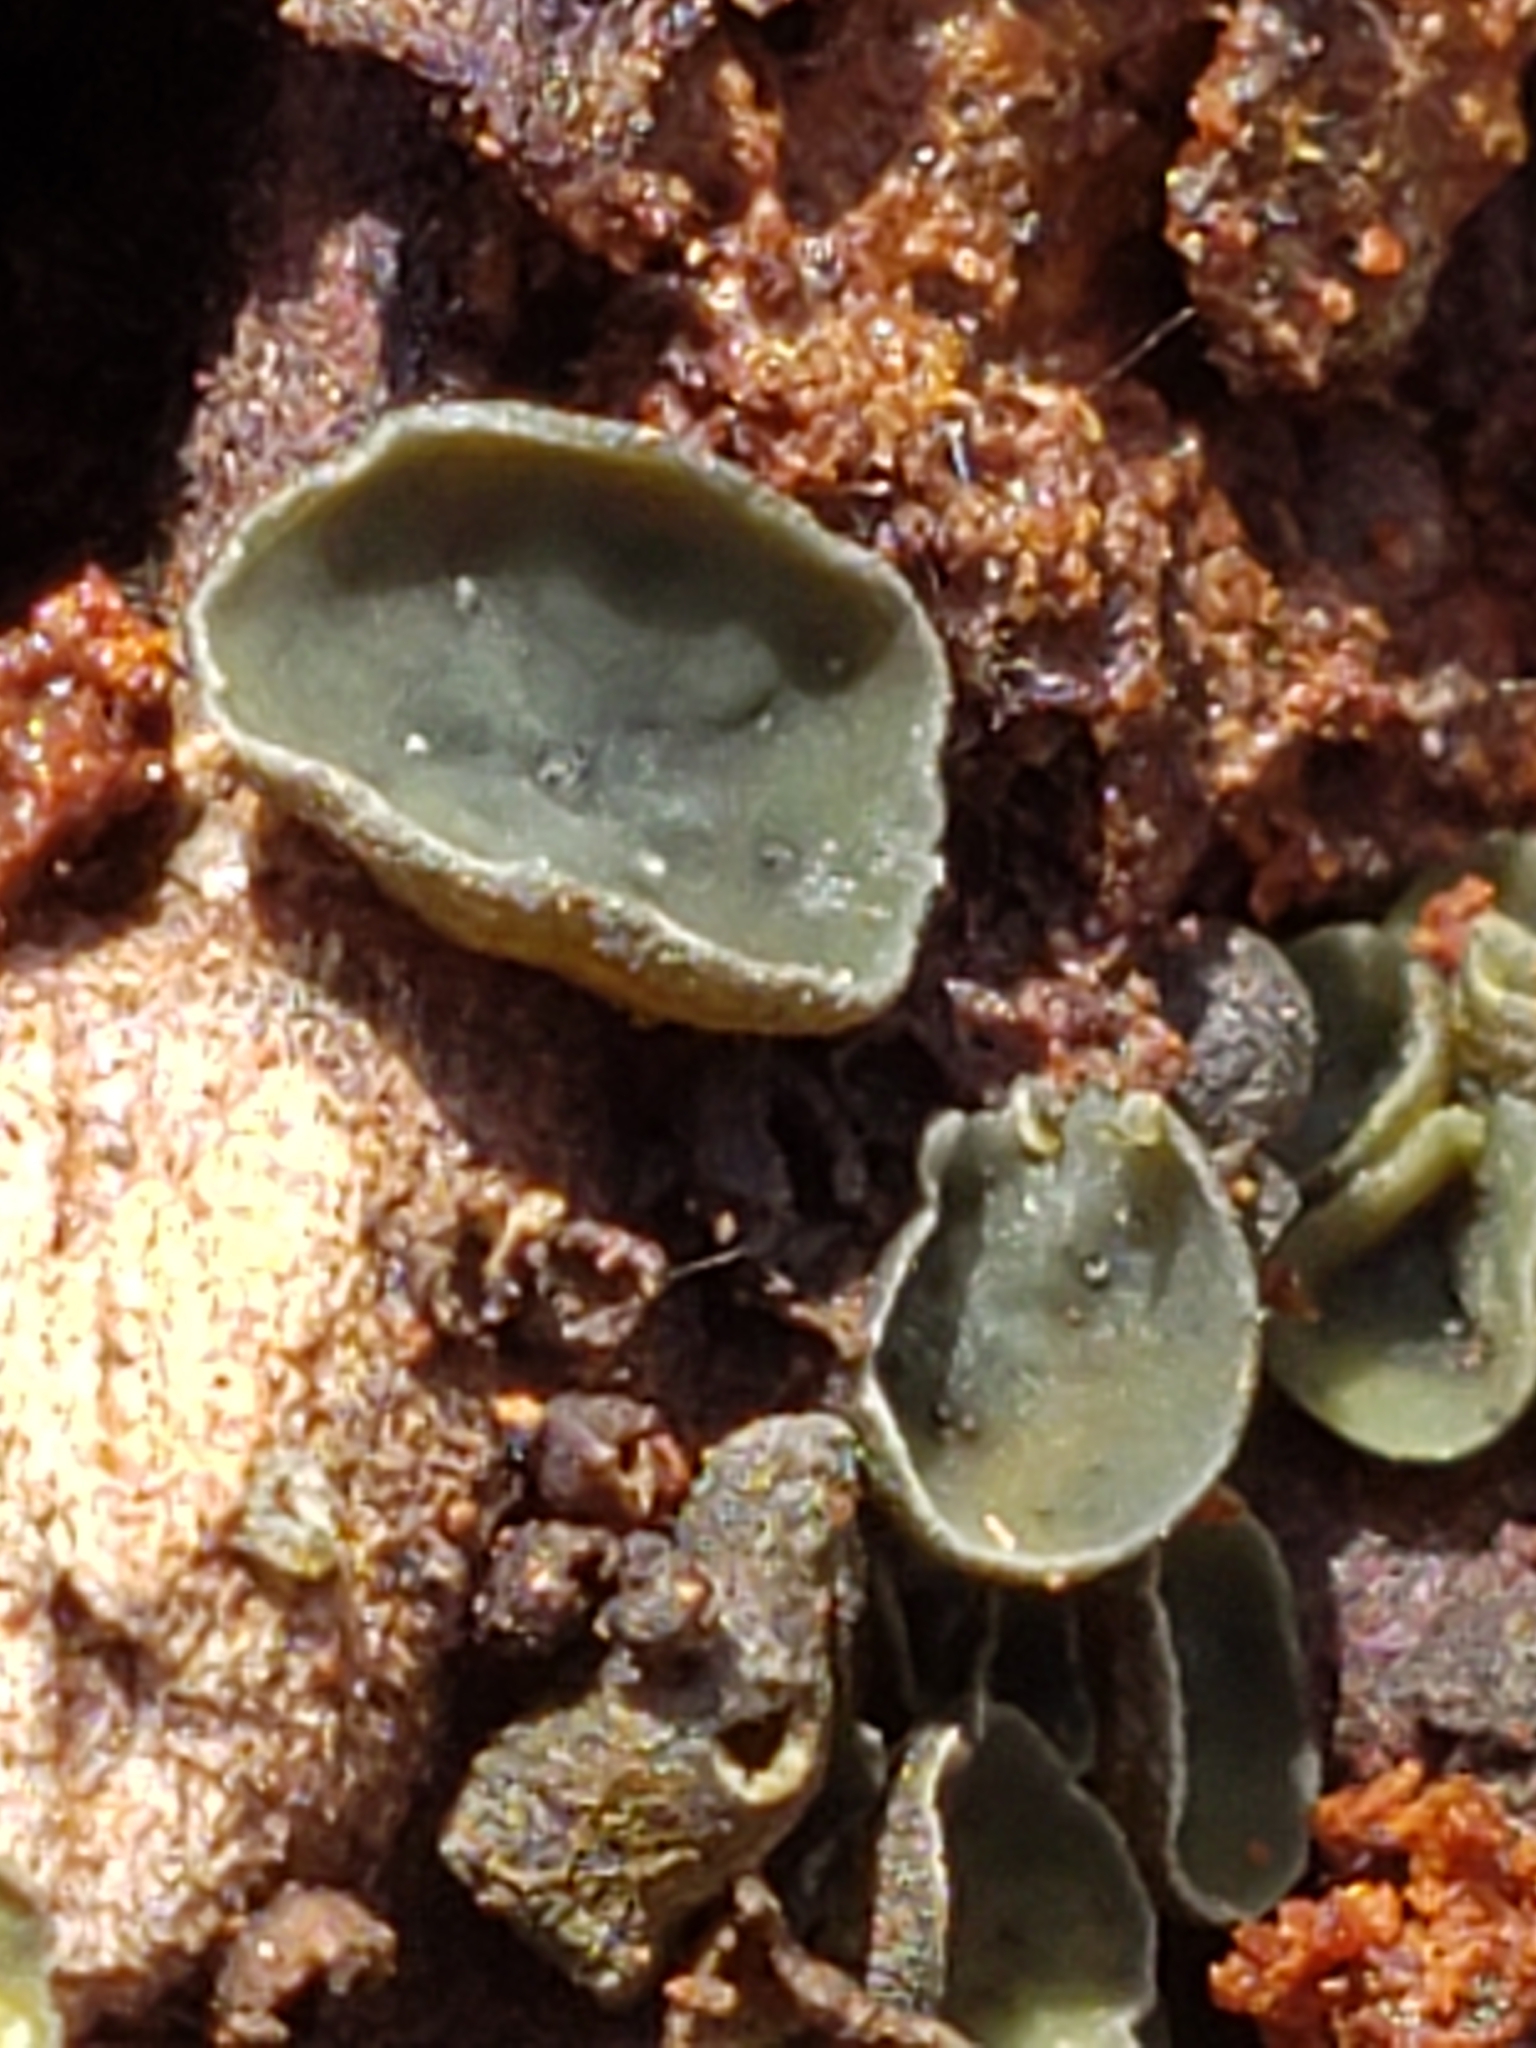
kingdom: Fungi
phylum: Ascomycota
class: Leotiomycetes
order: Helotiales
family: Chlorospleniaceae
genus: Chlorosplenium
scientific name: Chlorosplenium chlora
